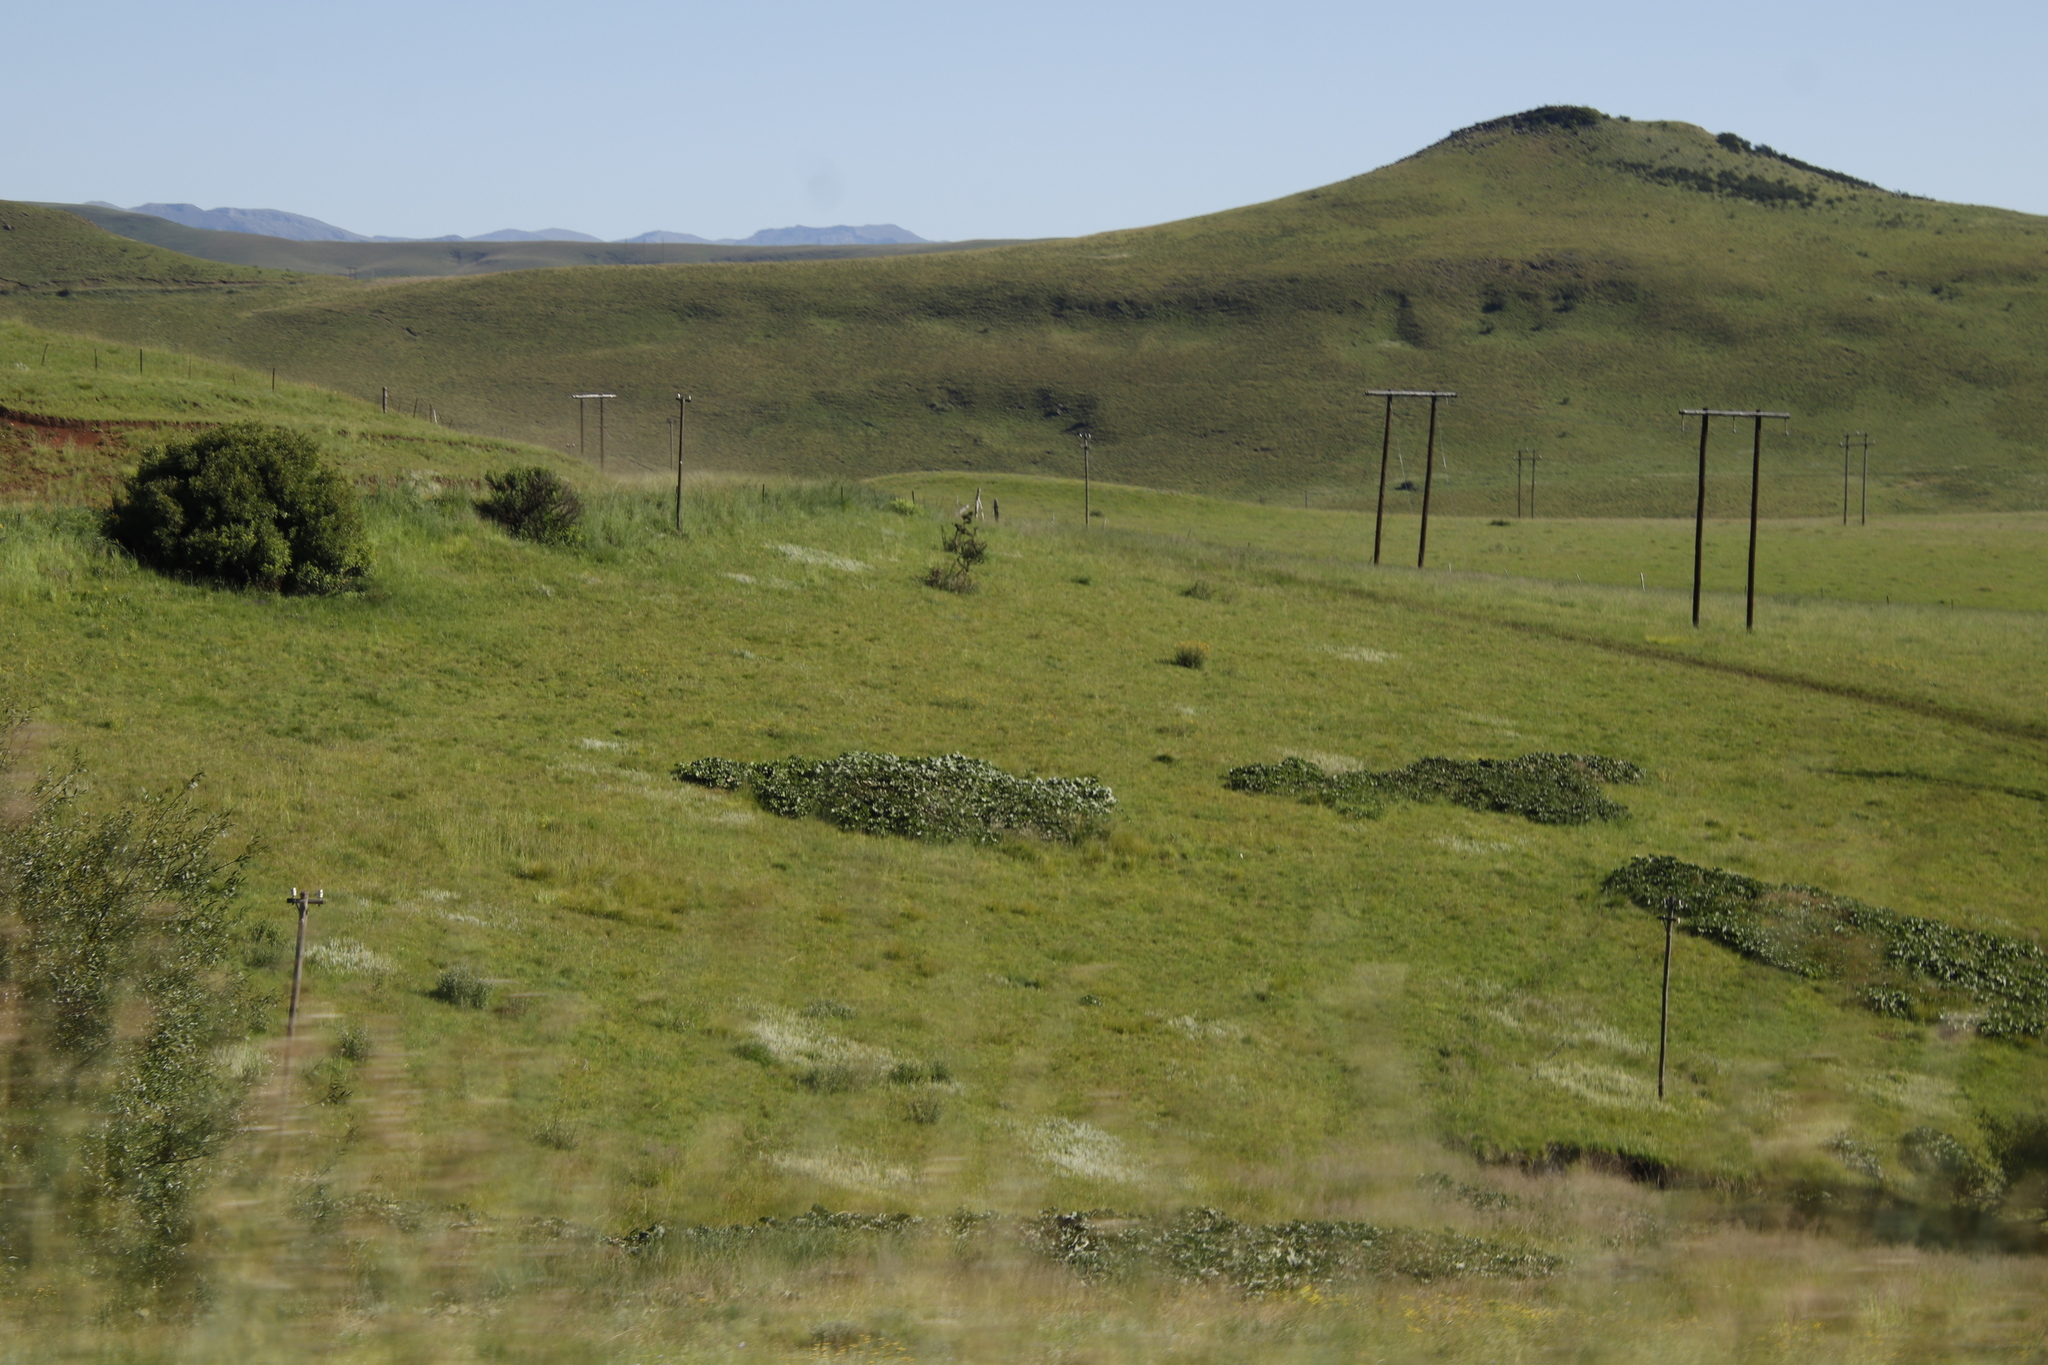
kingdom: Plantae
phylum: Tracheophyta
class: Magnoliopsida
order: Gunnerales
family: Gunneraceae
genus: Gunnera
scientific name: Gunnera perpensa
